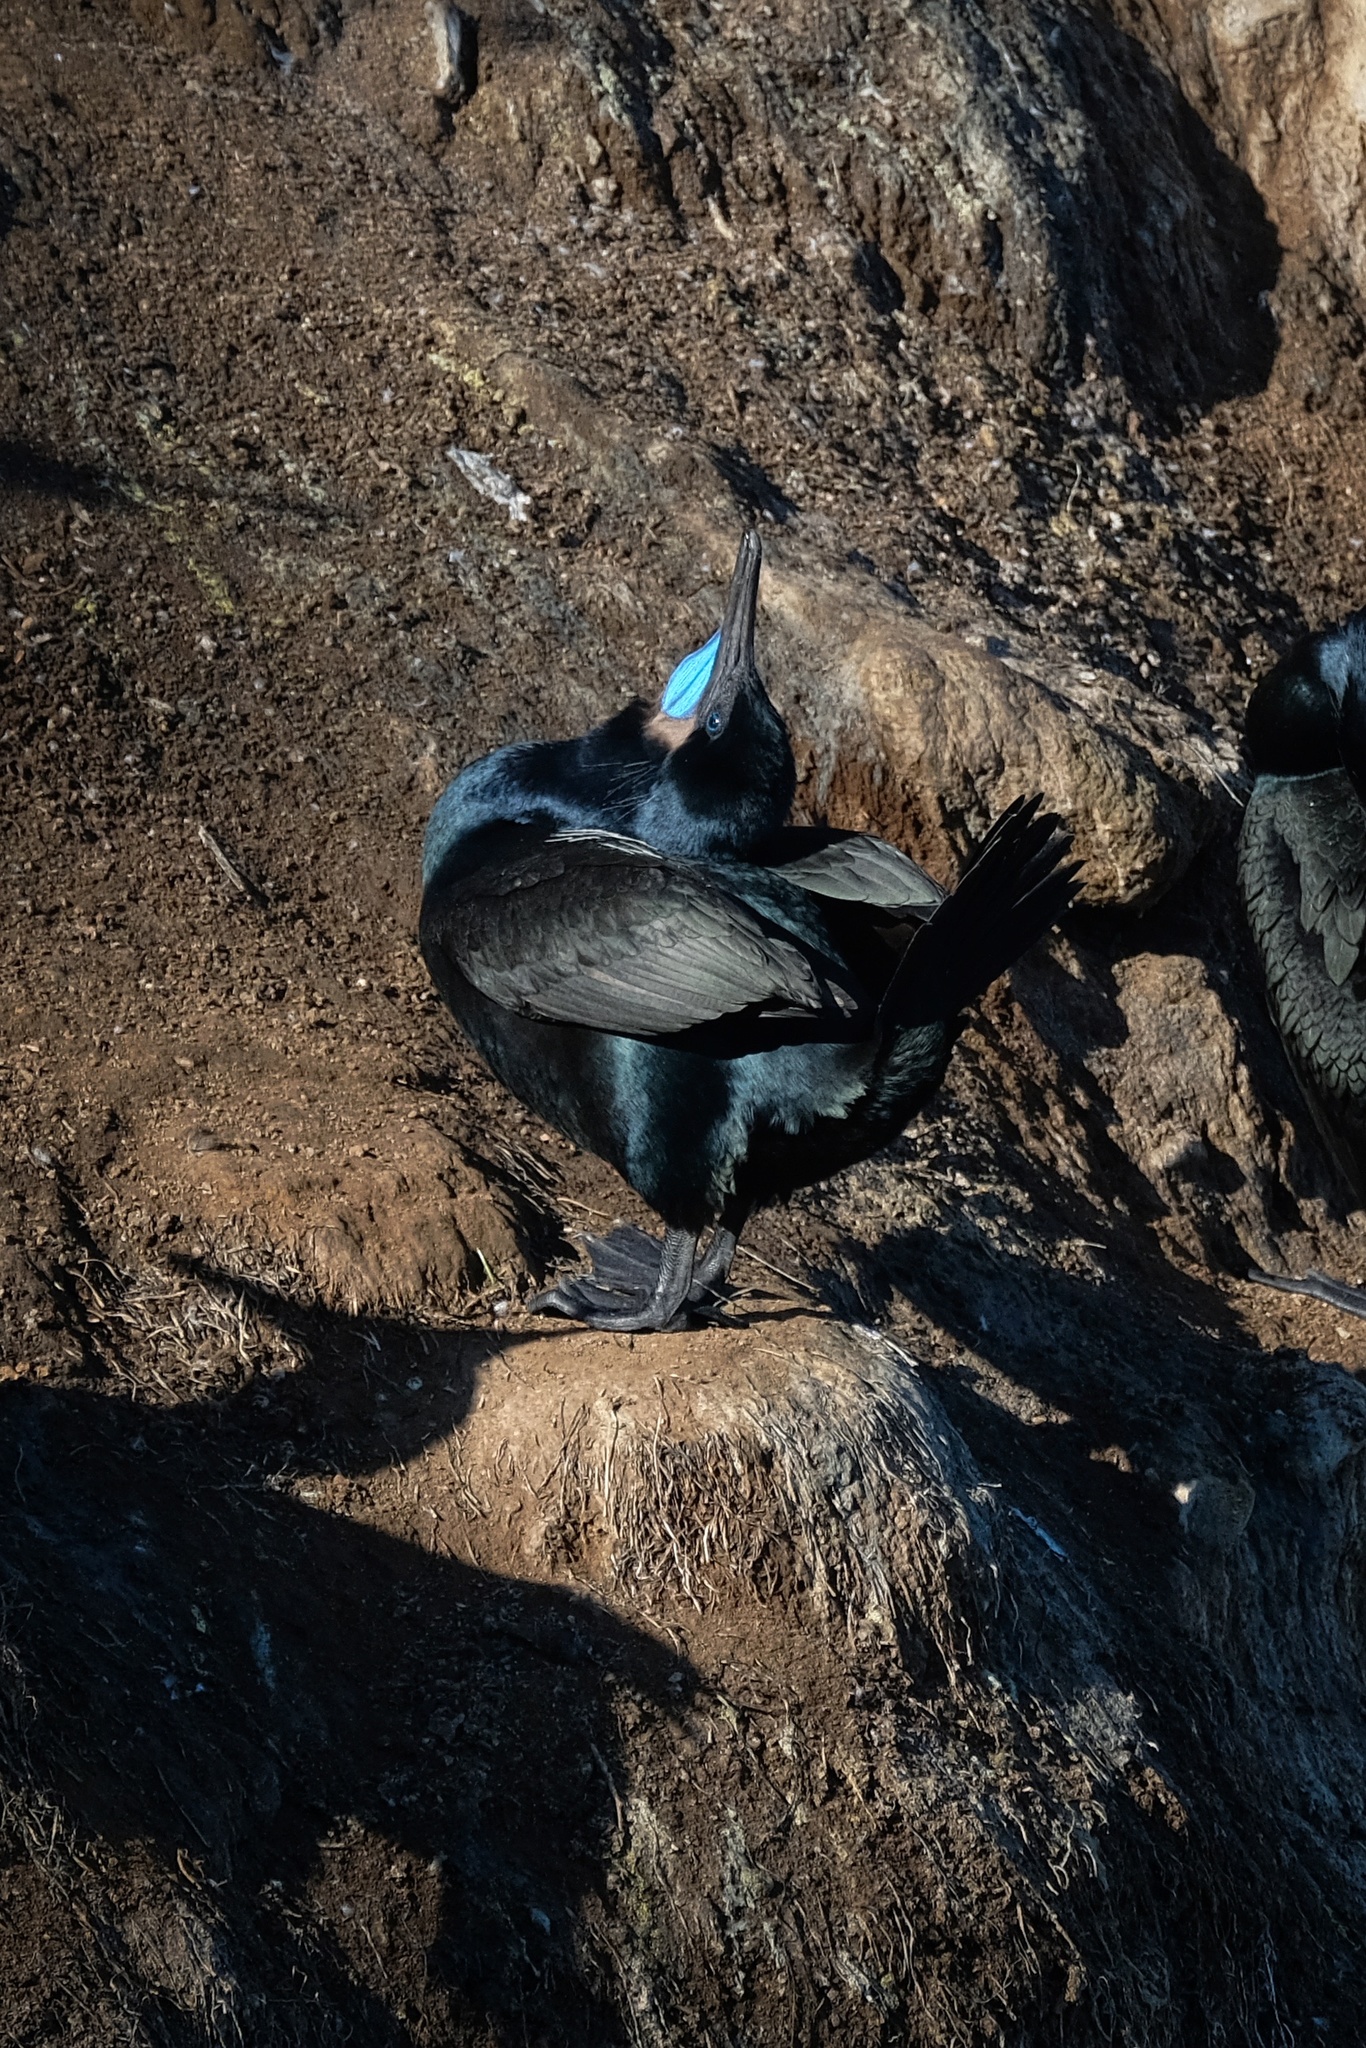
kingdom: Animalia
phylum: Chordata
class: Aves
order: Suliformes
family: Phalacrocoracidae
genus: Urile
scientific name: Urile penicillatus
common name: Brandt's cormorant
